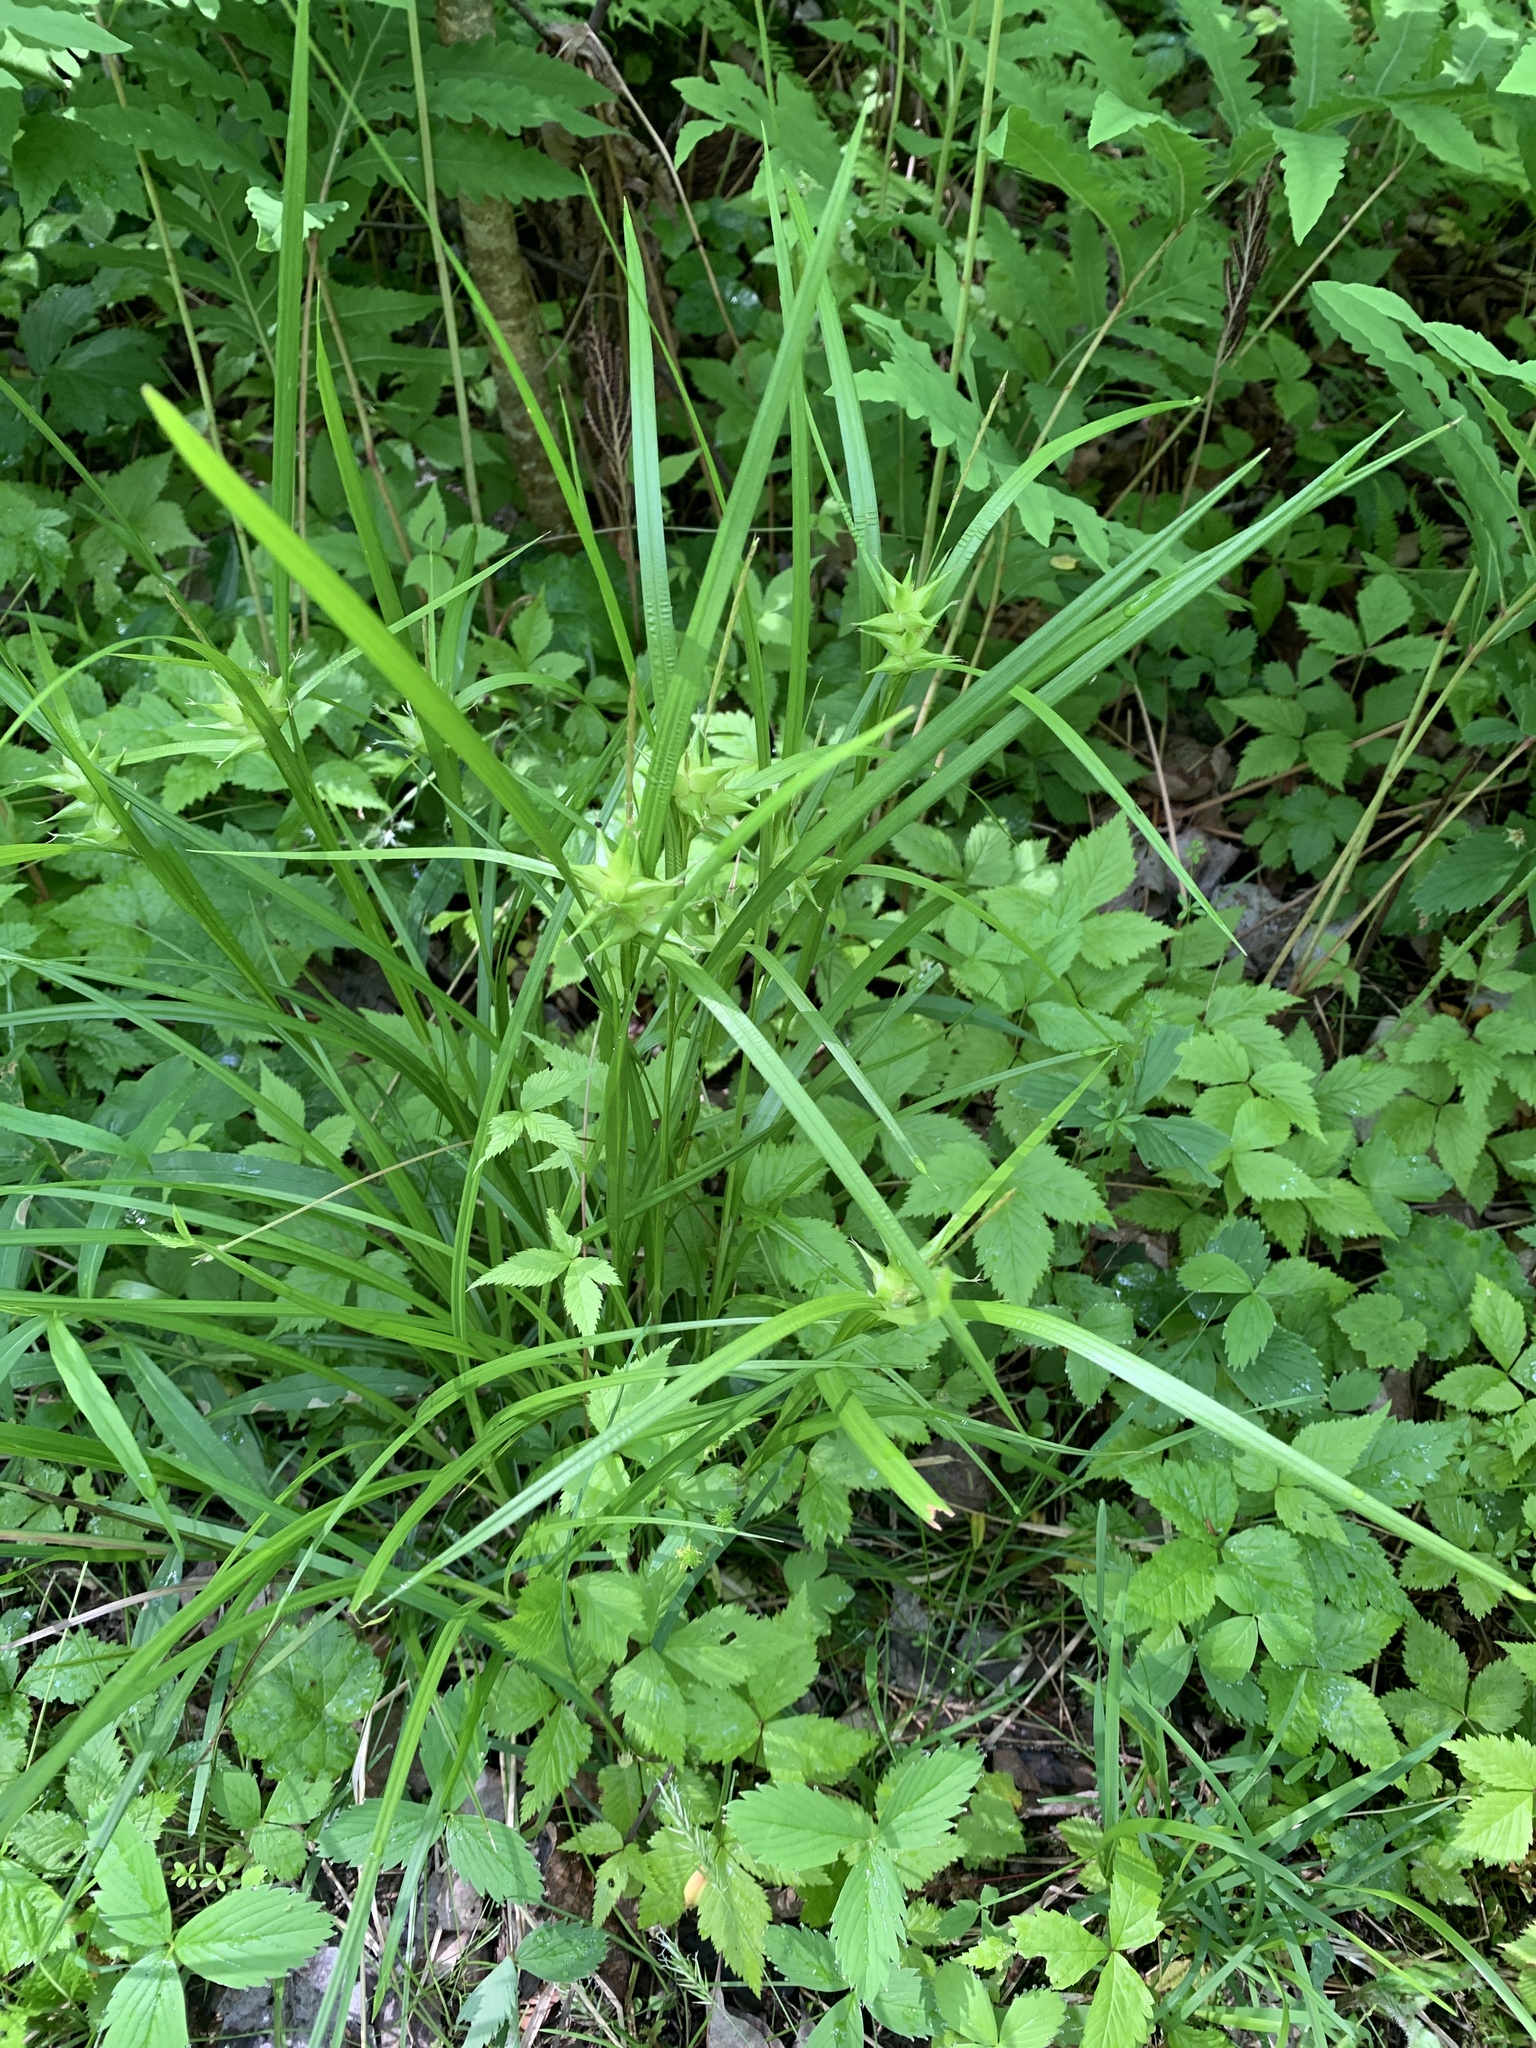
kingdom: Plantae
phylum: Tracheophyta
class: Liliopsida
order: Poales
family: Cyperaceae
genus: Carex
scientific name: Carex intumescens
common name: Greater bladder sedge
